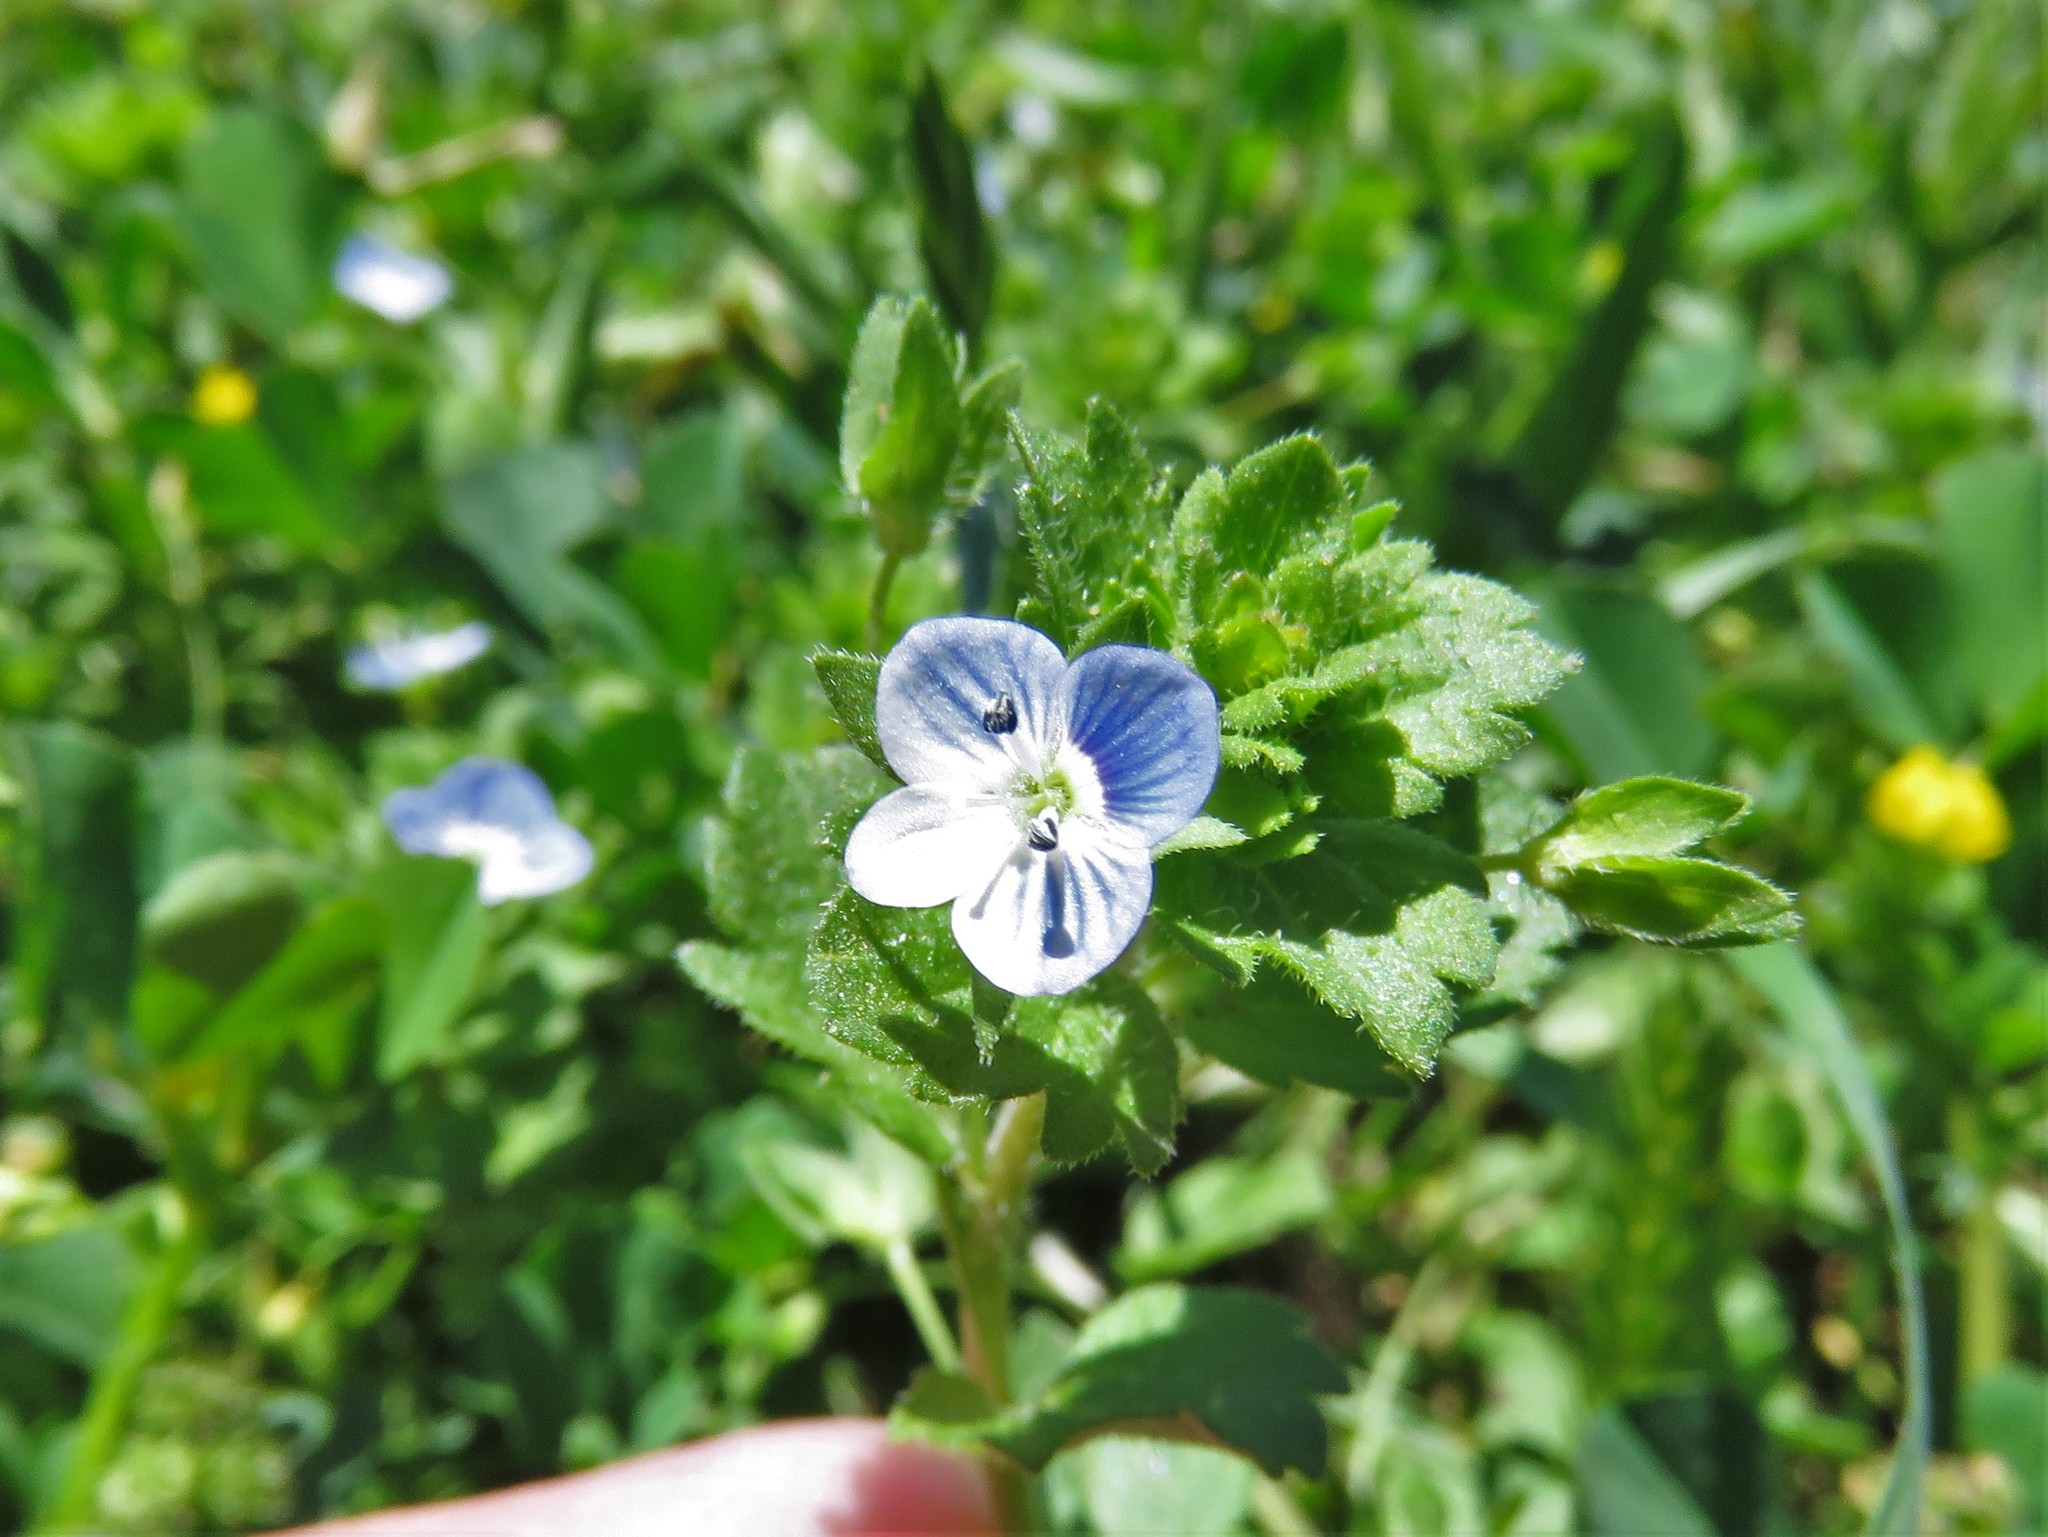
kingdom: Plantae
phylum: Tracheophyta
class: Magnoliopsida
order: Lamiales
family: Plantaginaceae
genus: Veronica
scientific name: Veronica persica
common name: Common field-speedwell
